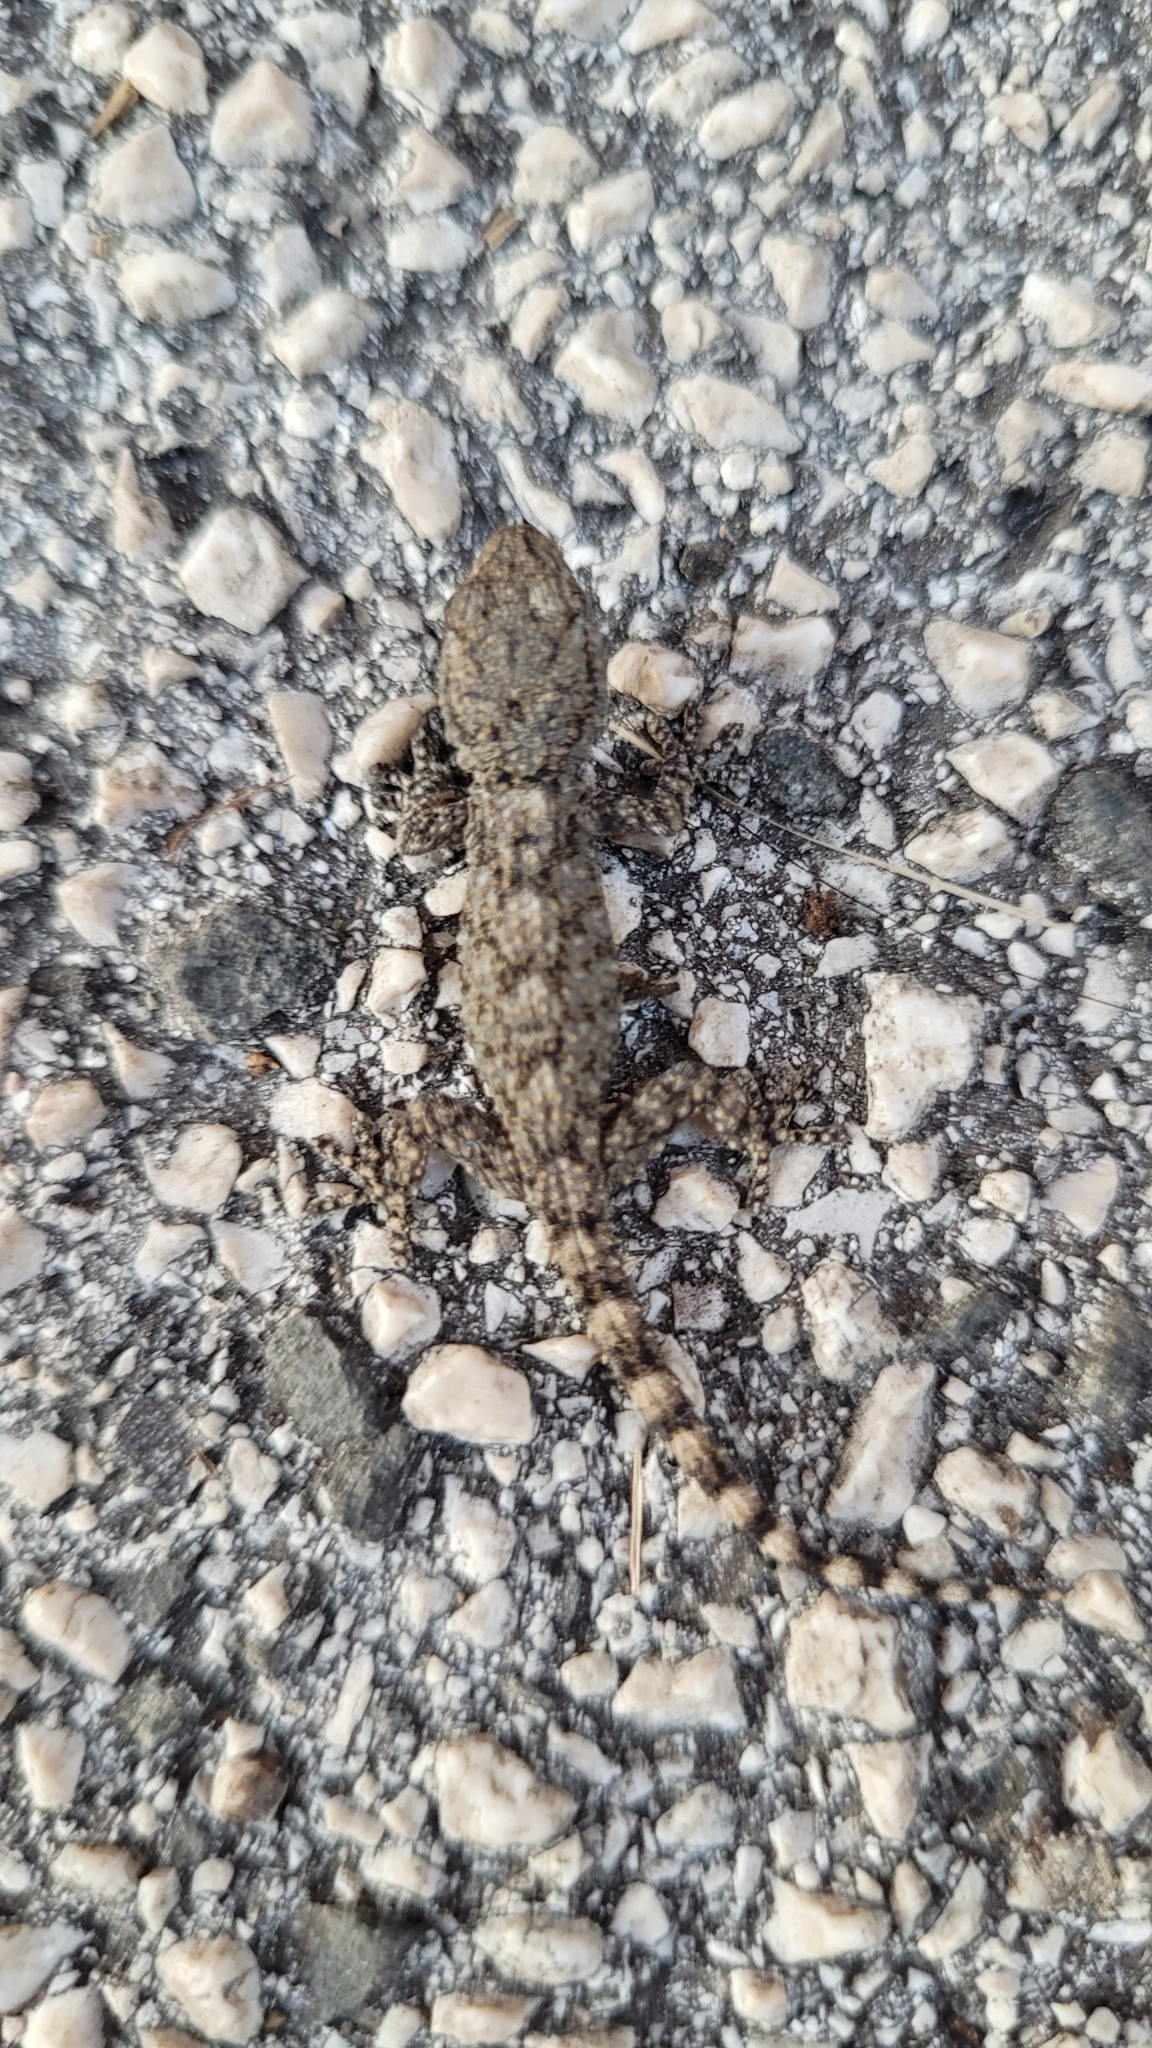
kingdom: Animalia
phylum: Chordata
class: Squamata
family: Phyllodactylidae
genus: Tarentola
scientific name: Tarentola mauritanica
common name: Moorish gecko
